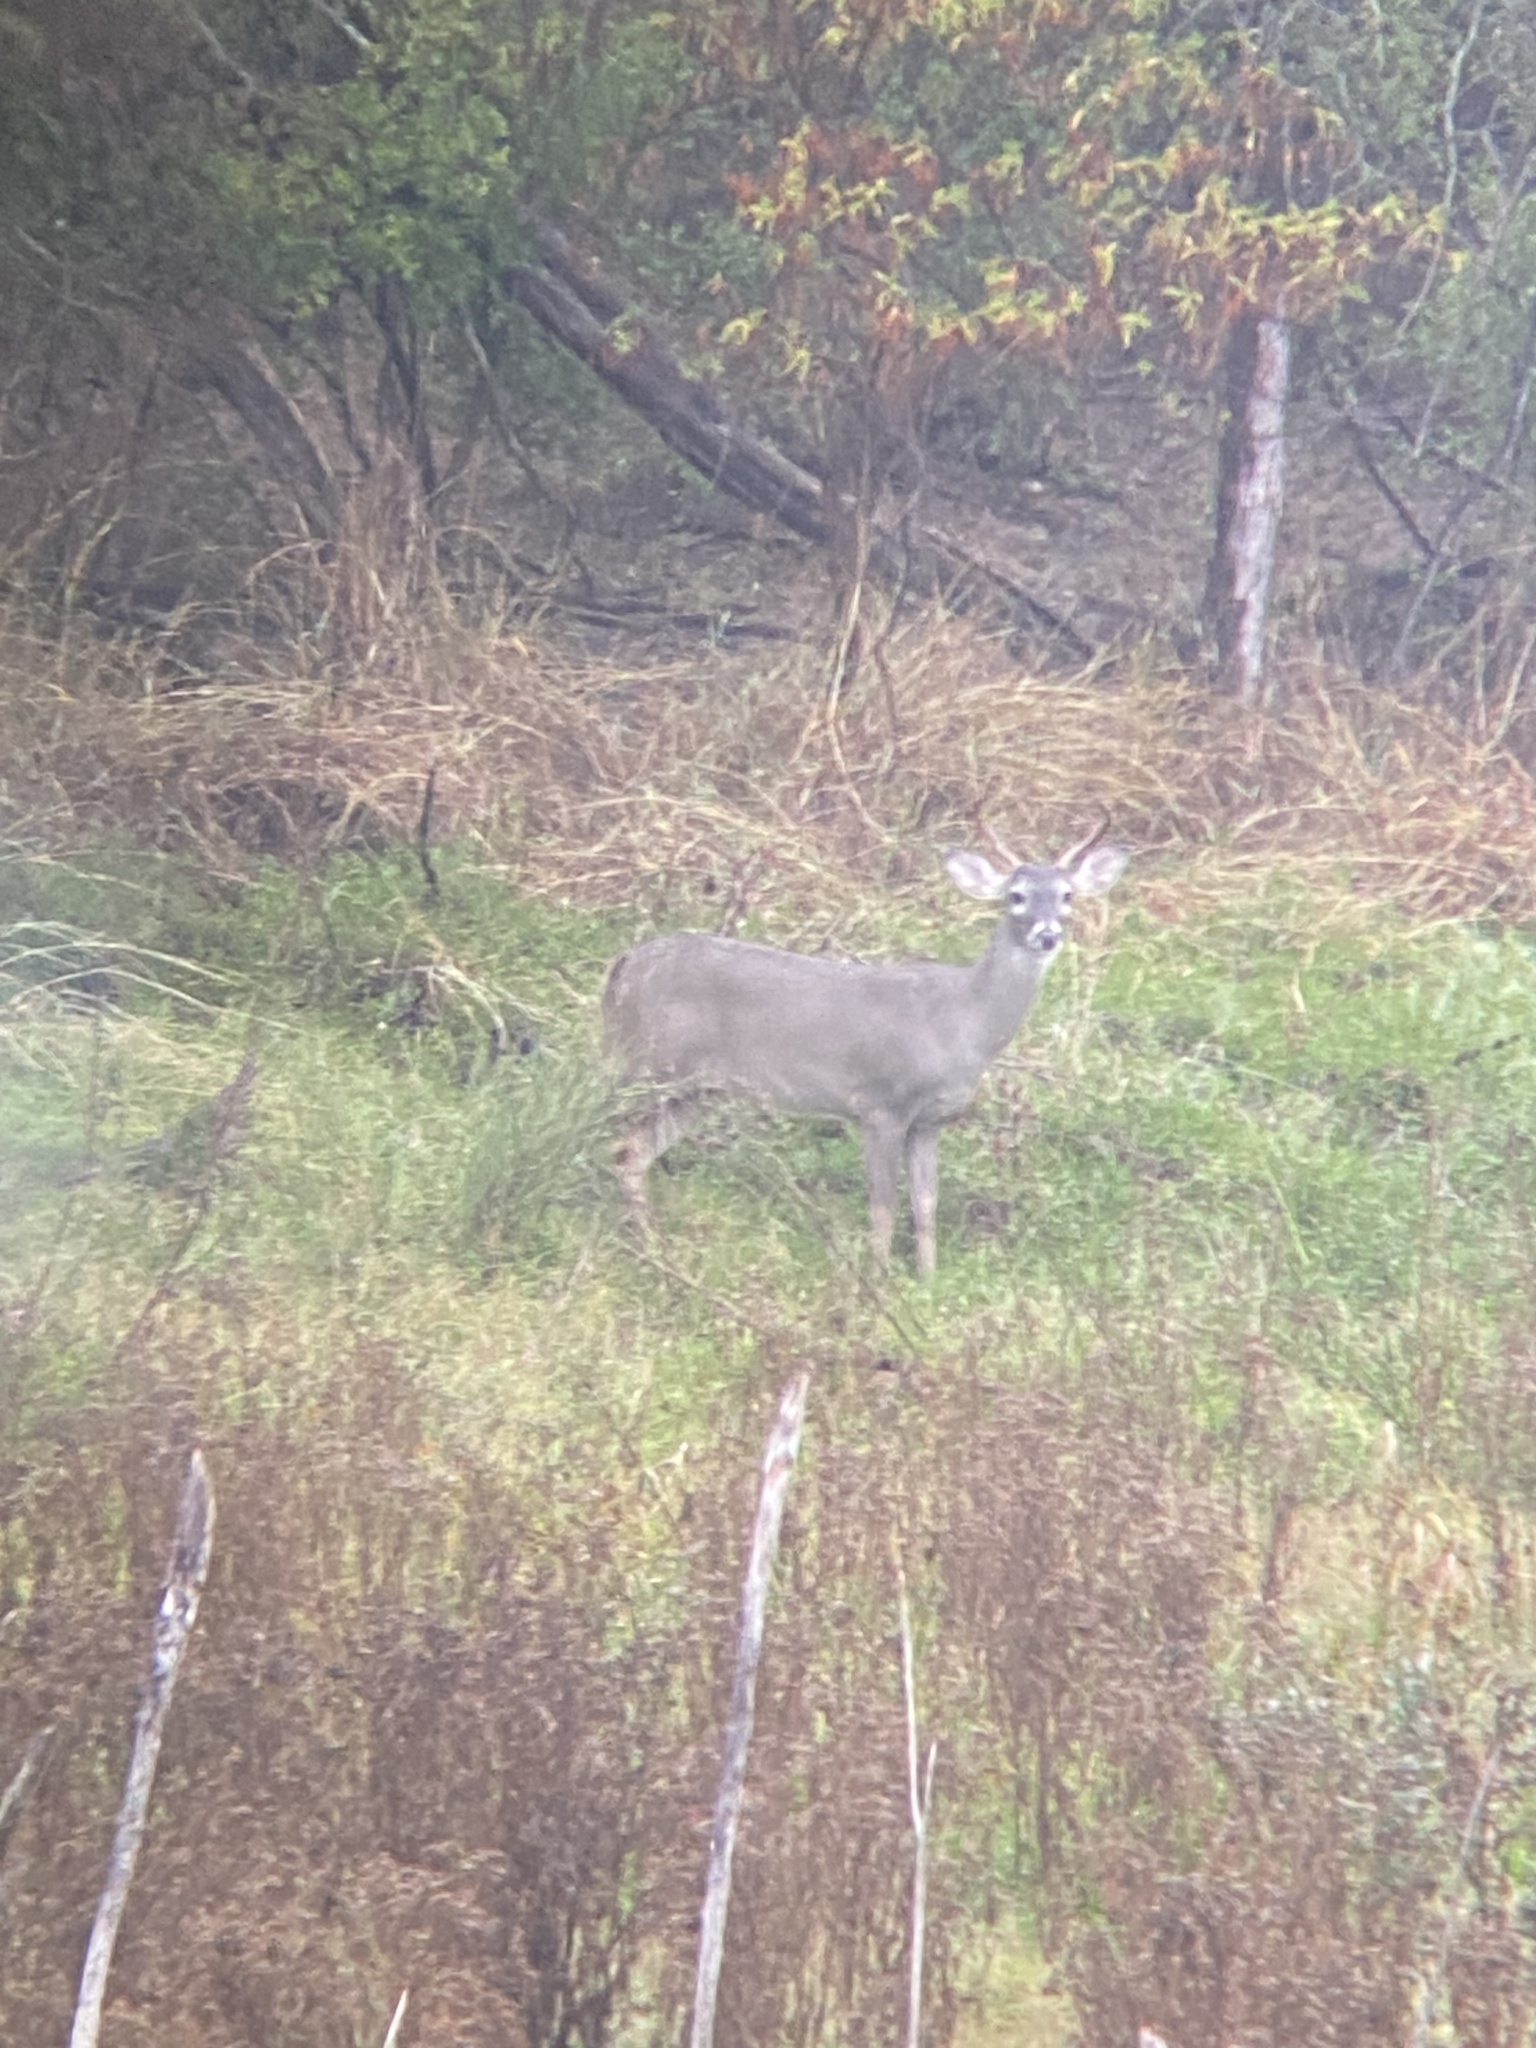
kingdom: Animalia
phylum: Chordata
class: Mammalia
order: Artiodactyla
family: Cervidae
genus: Odocoileus
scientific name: Odocoileus virginianus
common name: White-tailed deer
